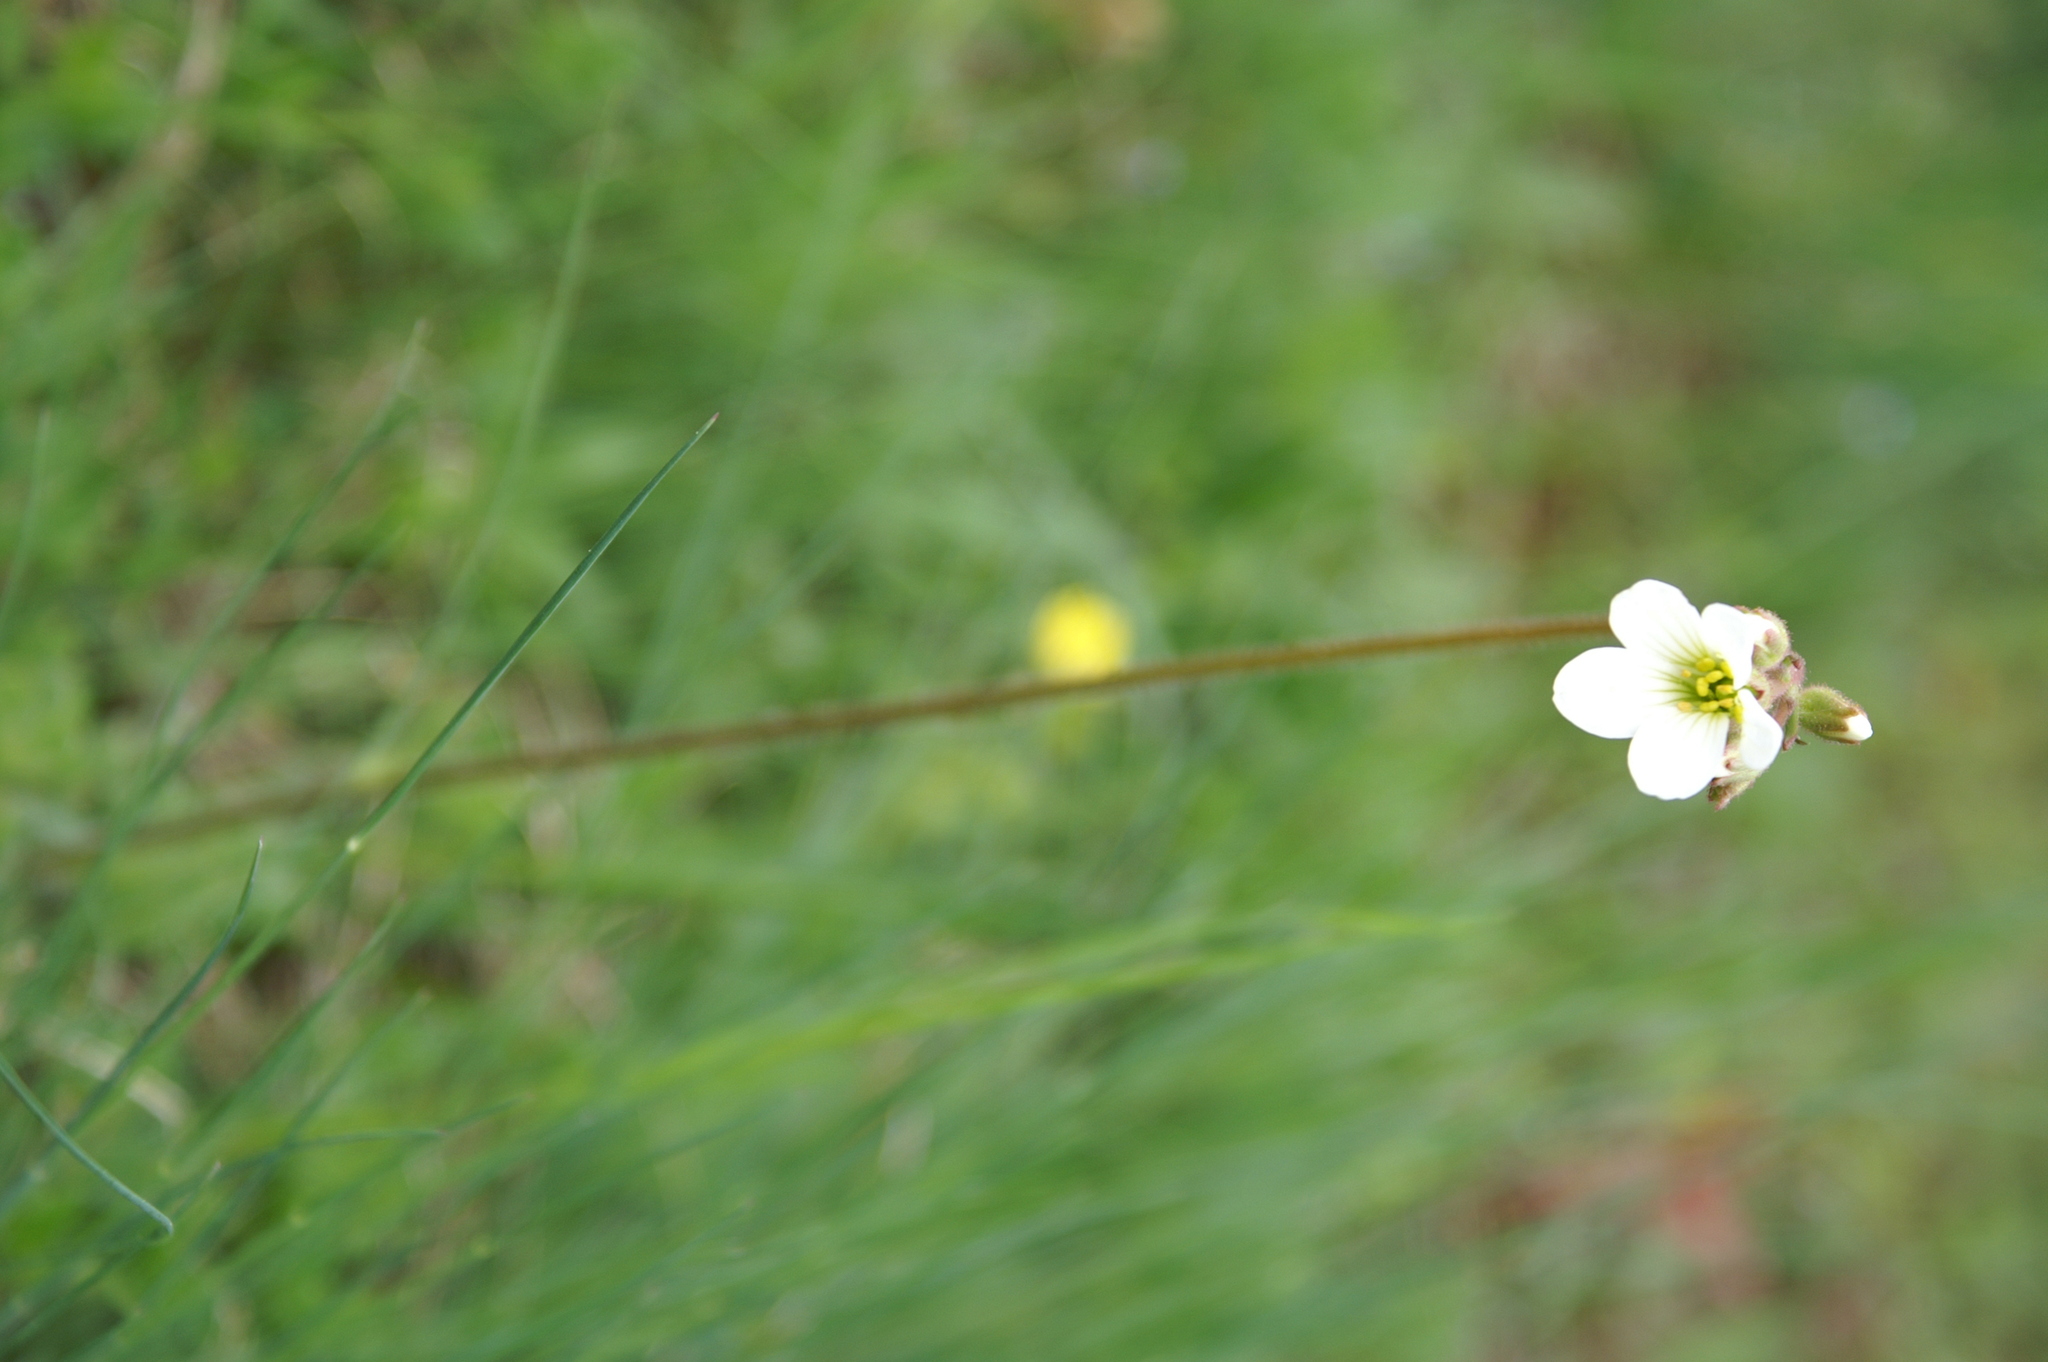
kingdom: Plantae
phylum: Tracheophyta
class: Magnoliopsida
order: Saxifragales
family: Saxifragaceae
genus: Saxifraga
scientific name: Saxifraga granulata
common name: Meadow saxifrage
